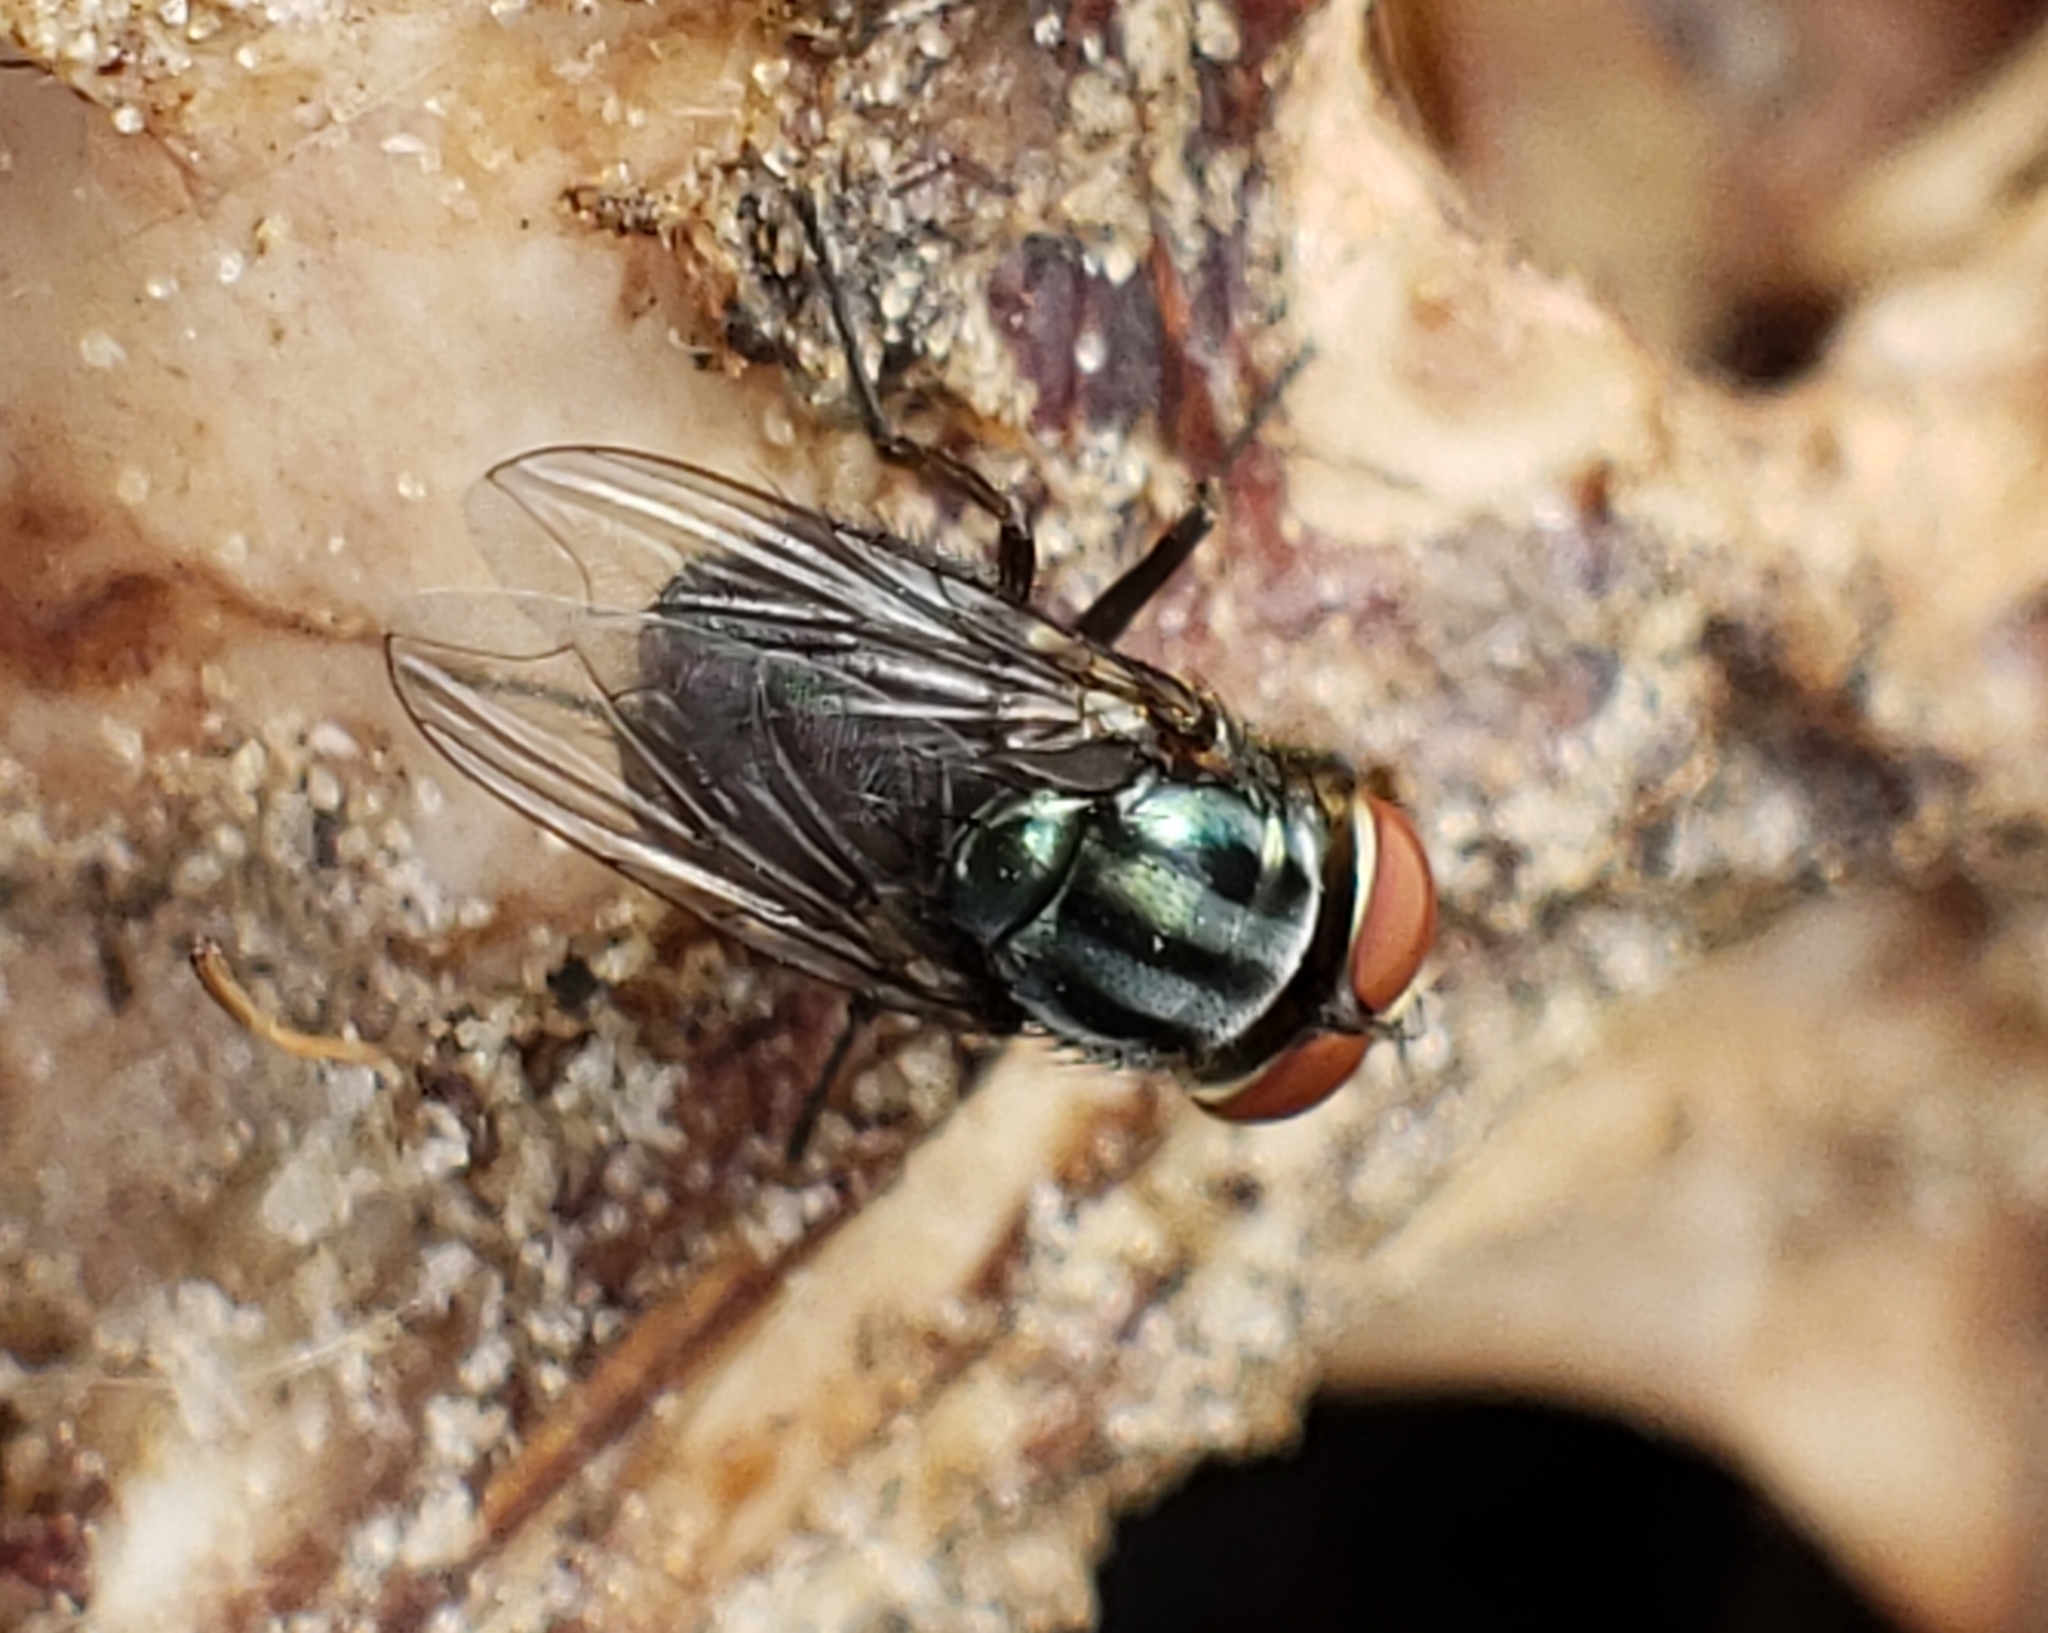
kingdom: Animalia
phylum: Arthropoda
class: Insecta
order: Diptera
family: Calliphoridae
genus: Cochliomyia
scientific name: Cochliomyia macellaria
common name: Secondary screwworm
